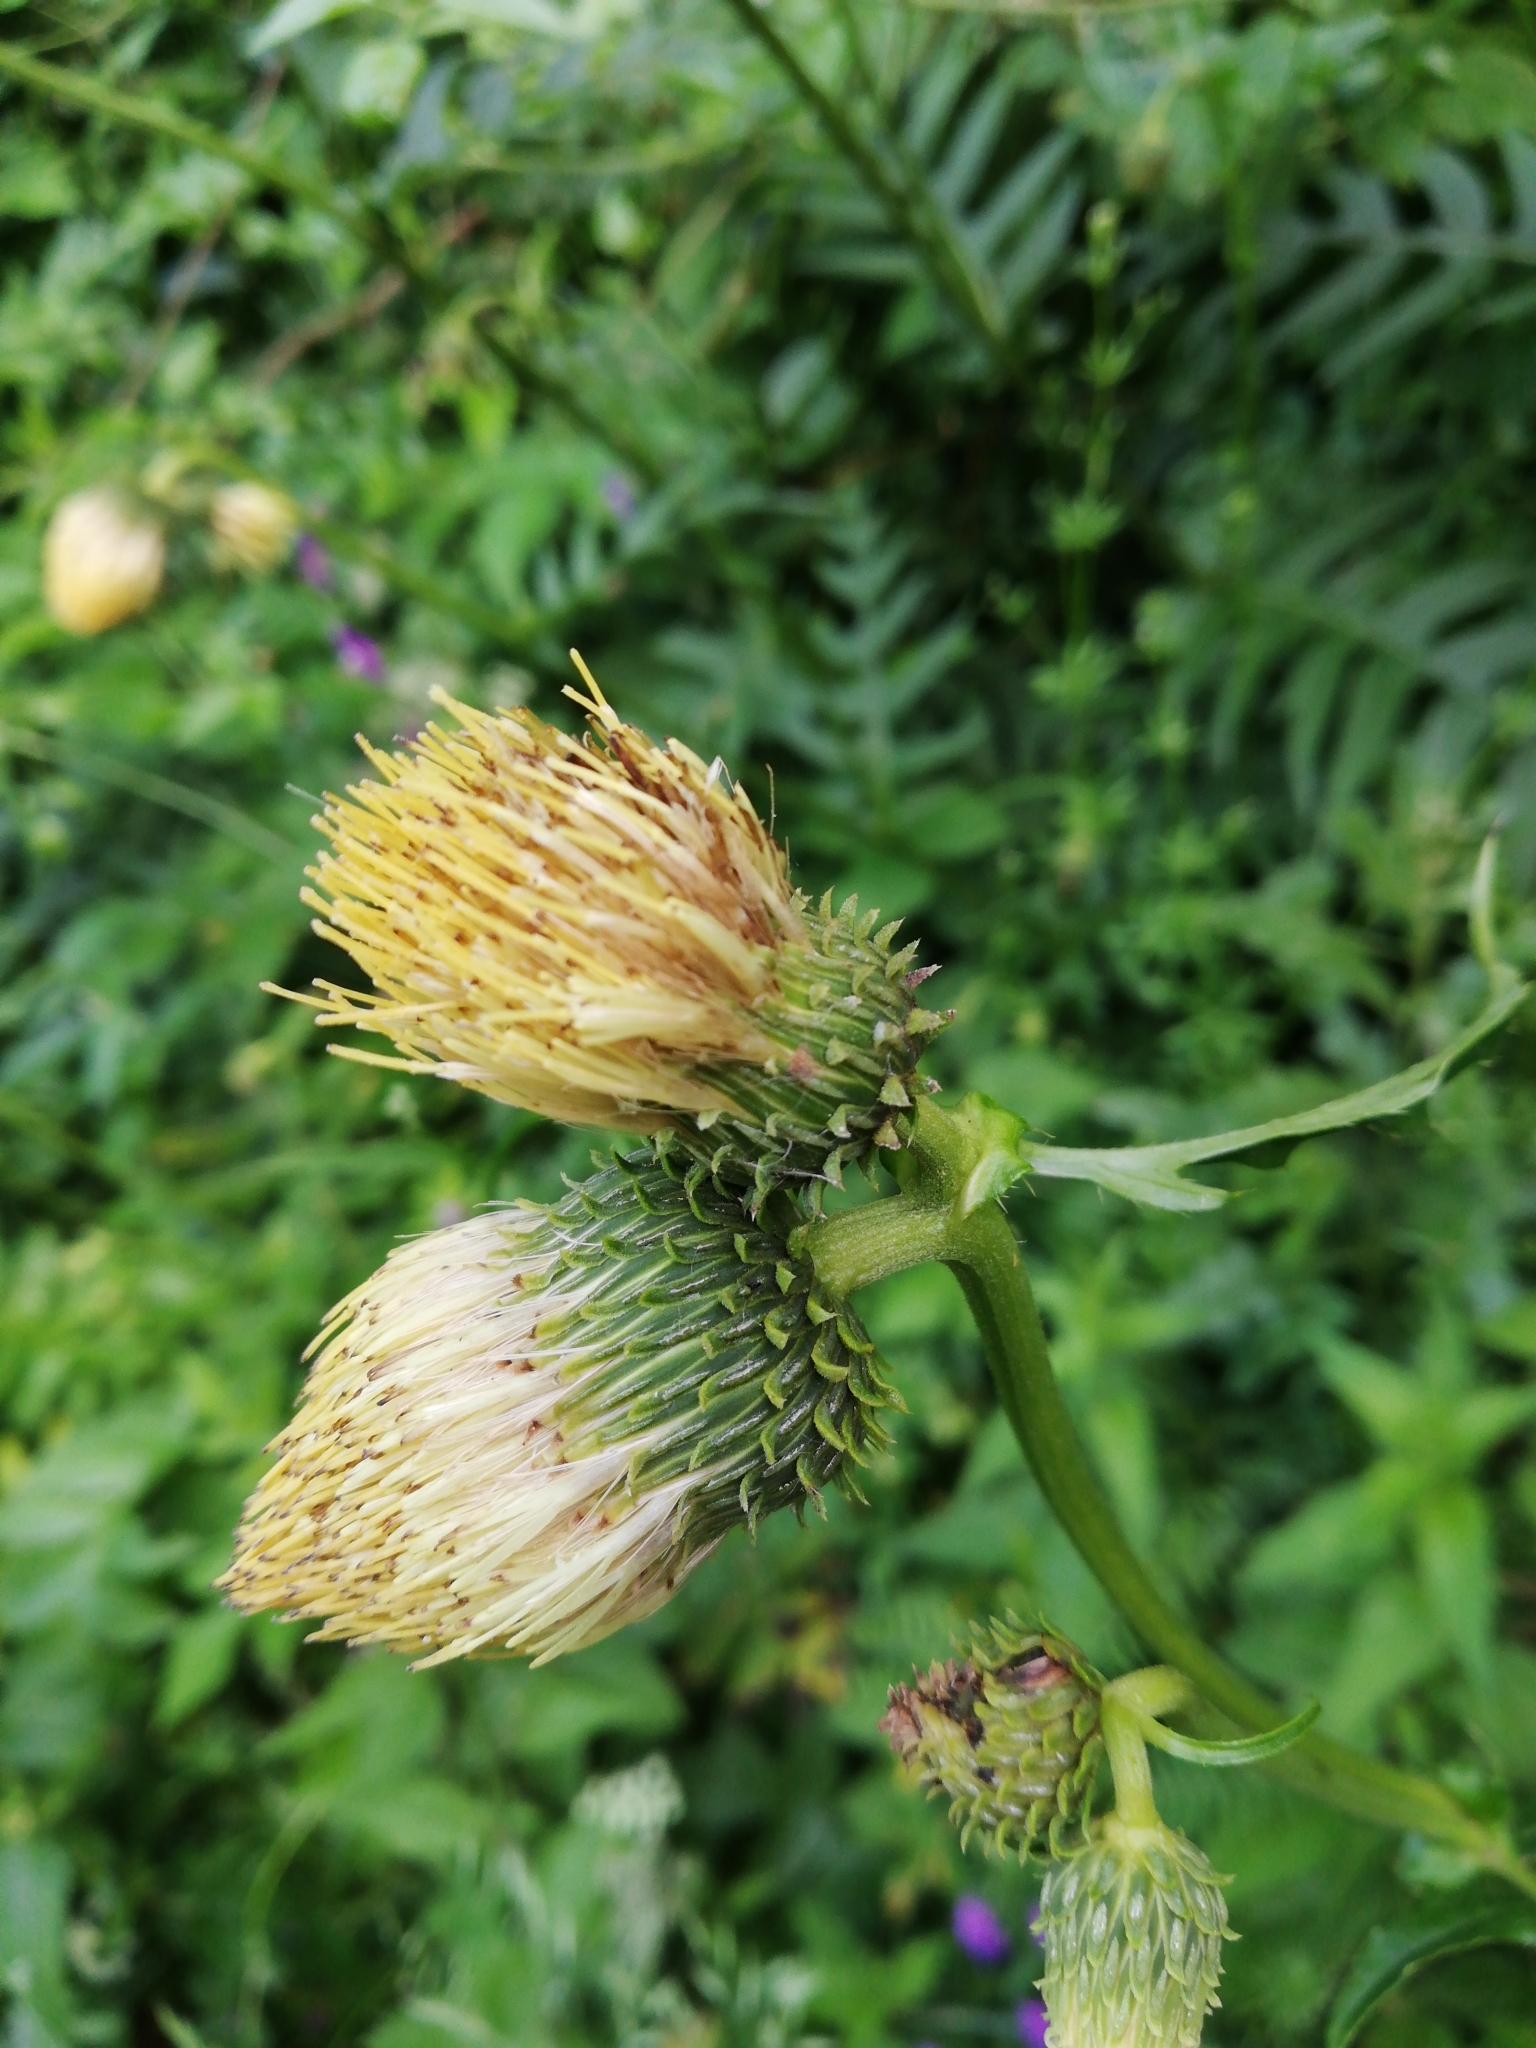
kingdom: Plantae
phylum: Tracheophyta
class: Magnoliopsida
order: Asterales
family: Asteraceae
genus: Cirsium
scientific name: Cirsium erisithales
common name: Yellow thistle
